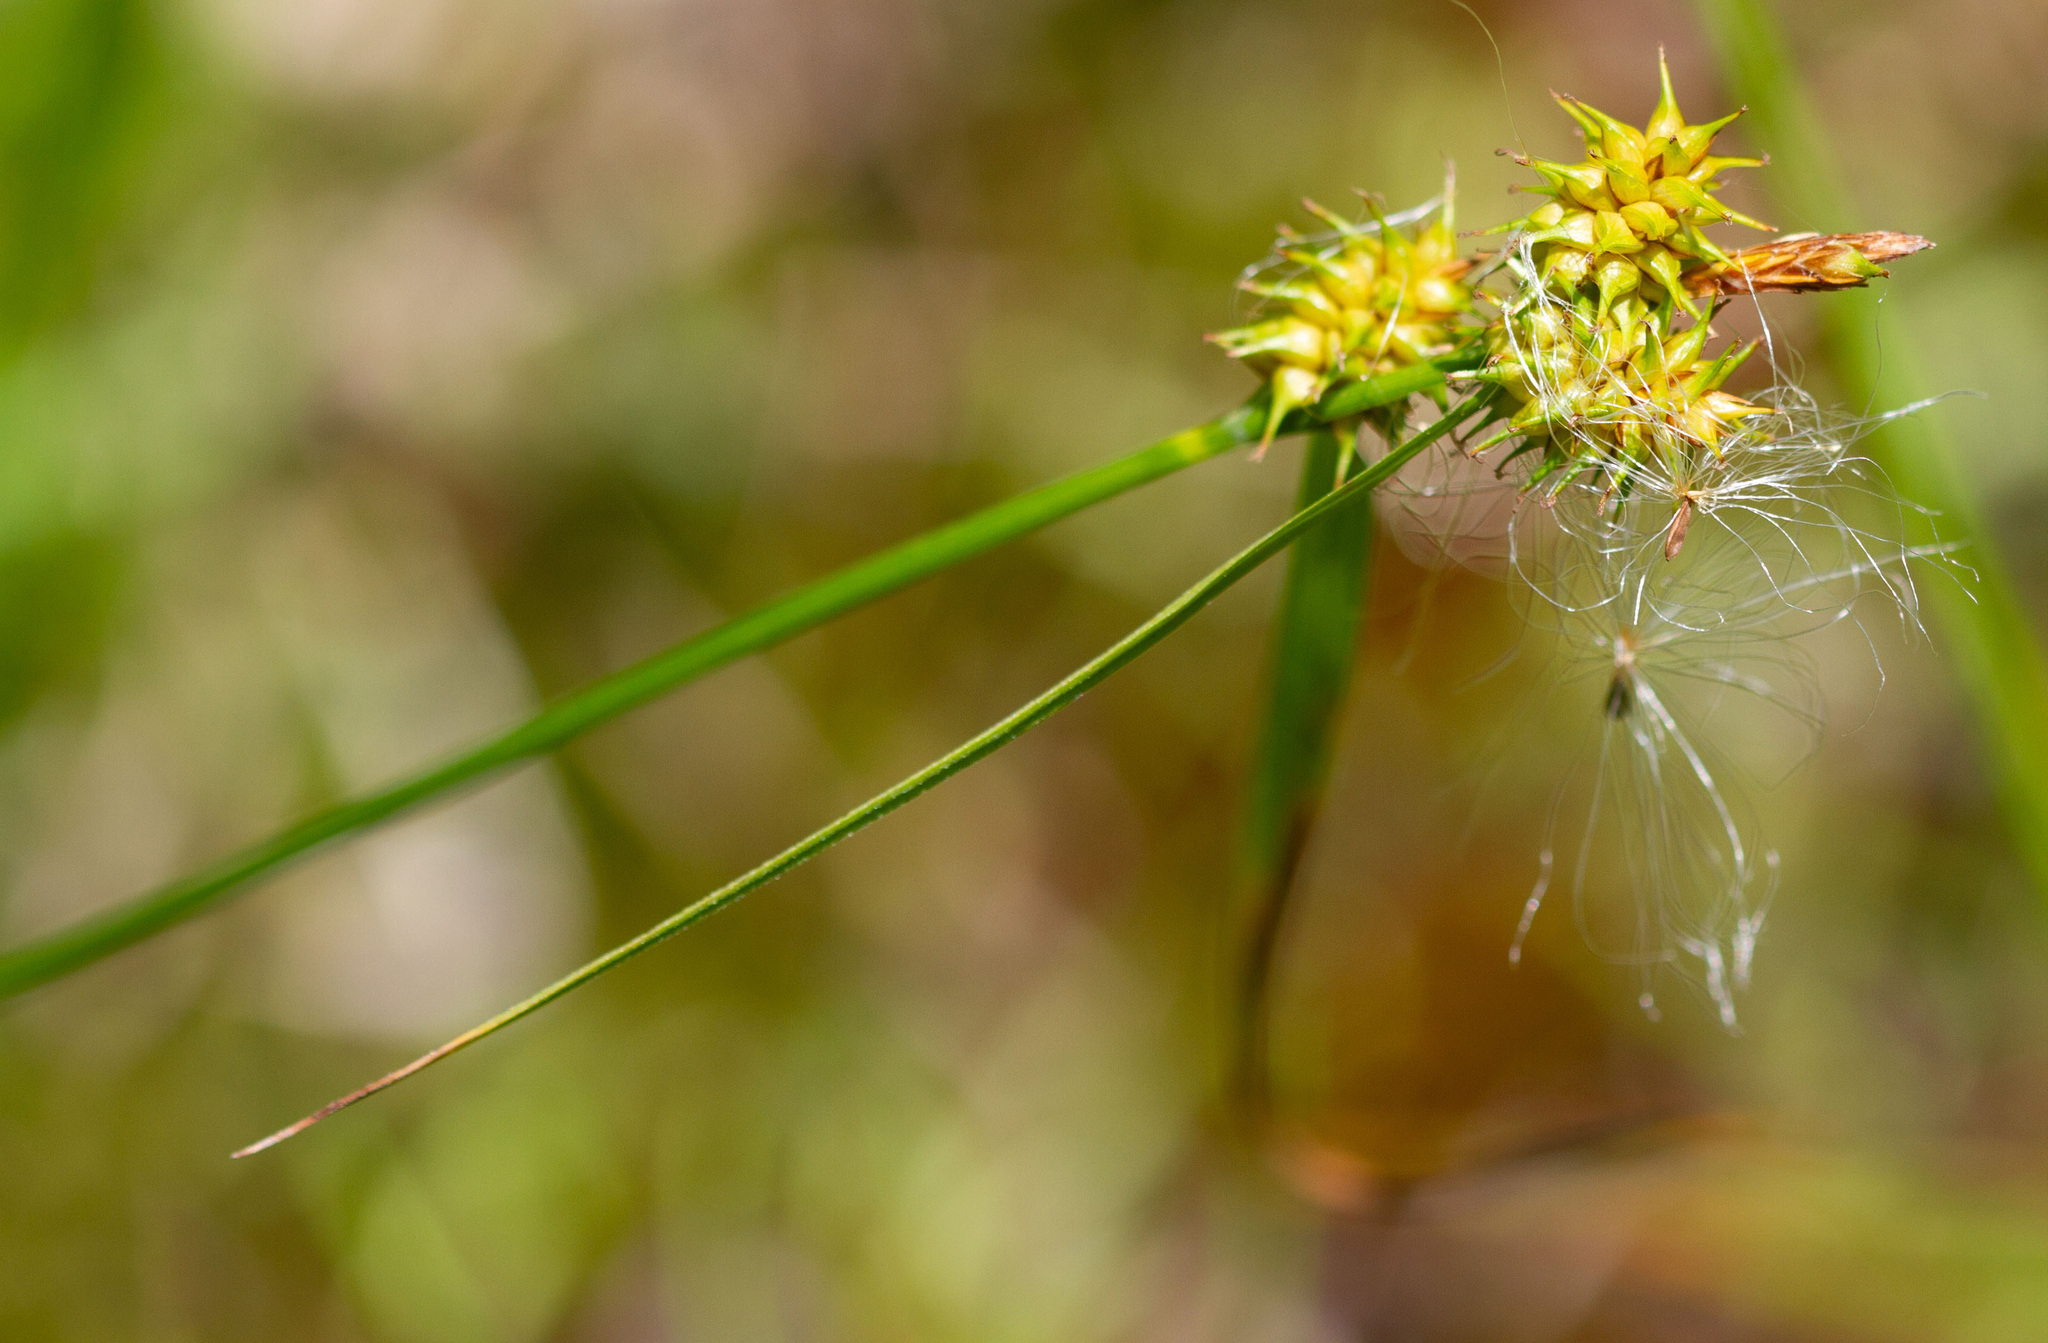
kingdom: Plantae
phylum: Tracheophyta
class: Liliopsida
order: Poales
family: Cyperaceae
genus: Carex
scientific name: Carex flava
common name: Large yellow-sedge
